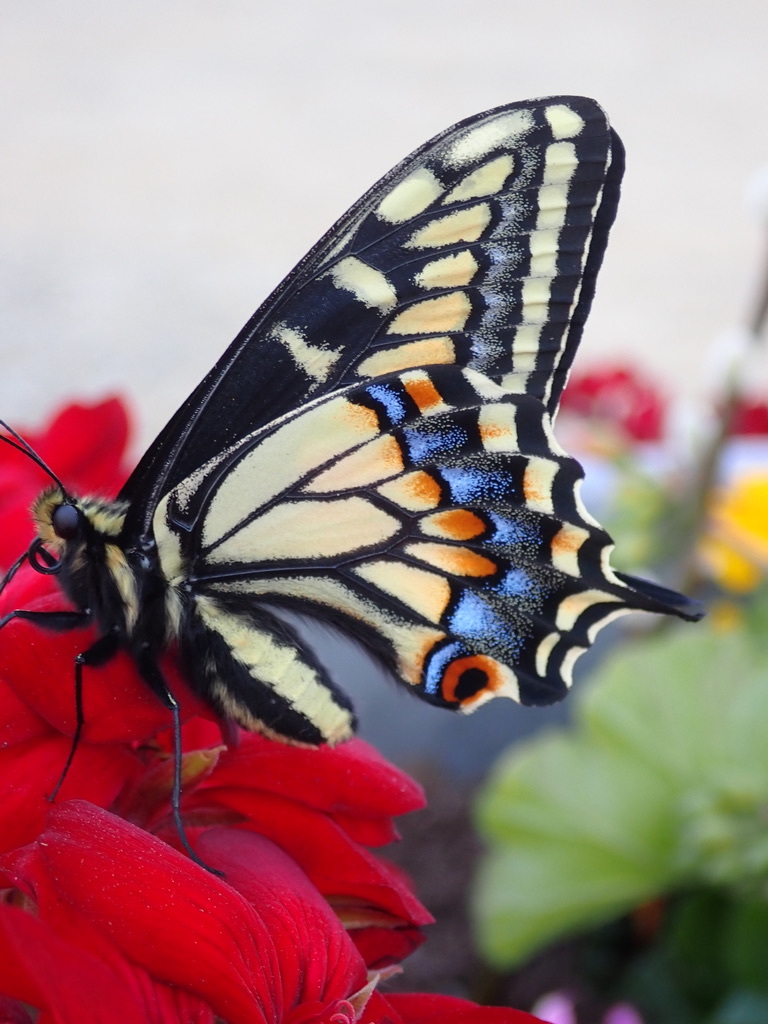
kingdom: Animalia
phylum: Arthropoda
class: Insecta
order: Lepidoptera
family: Papilionidae
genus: Papilio
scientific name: Papilio zelicaon
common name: Anise swallowtail
